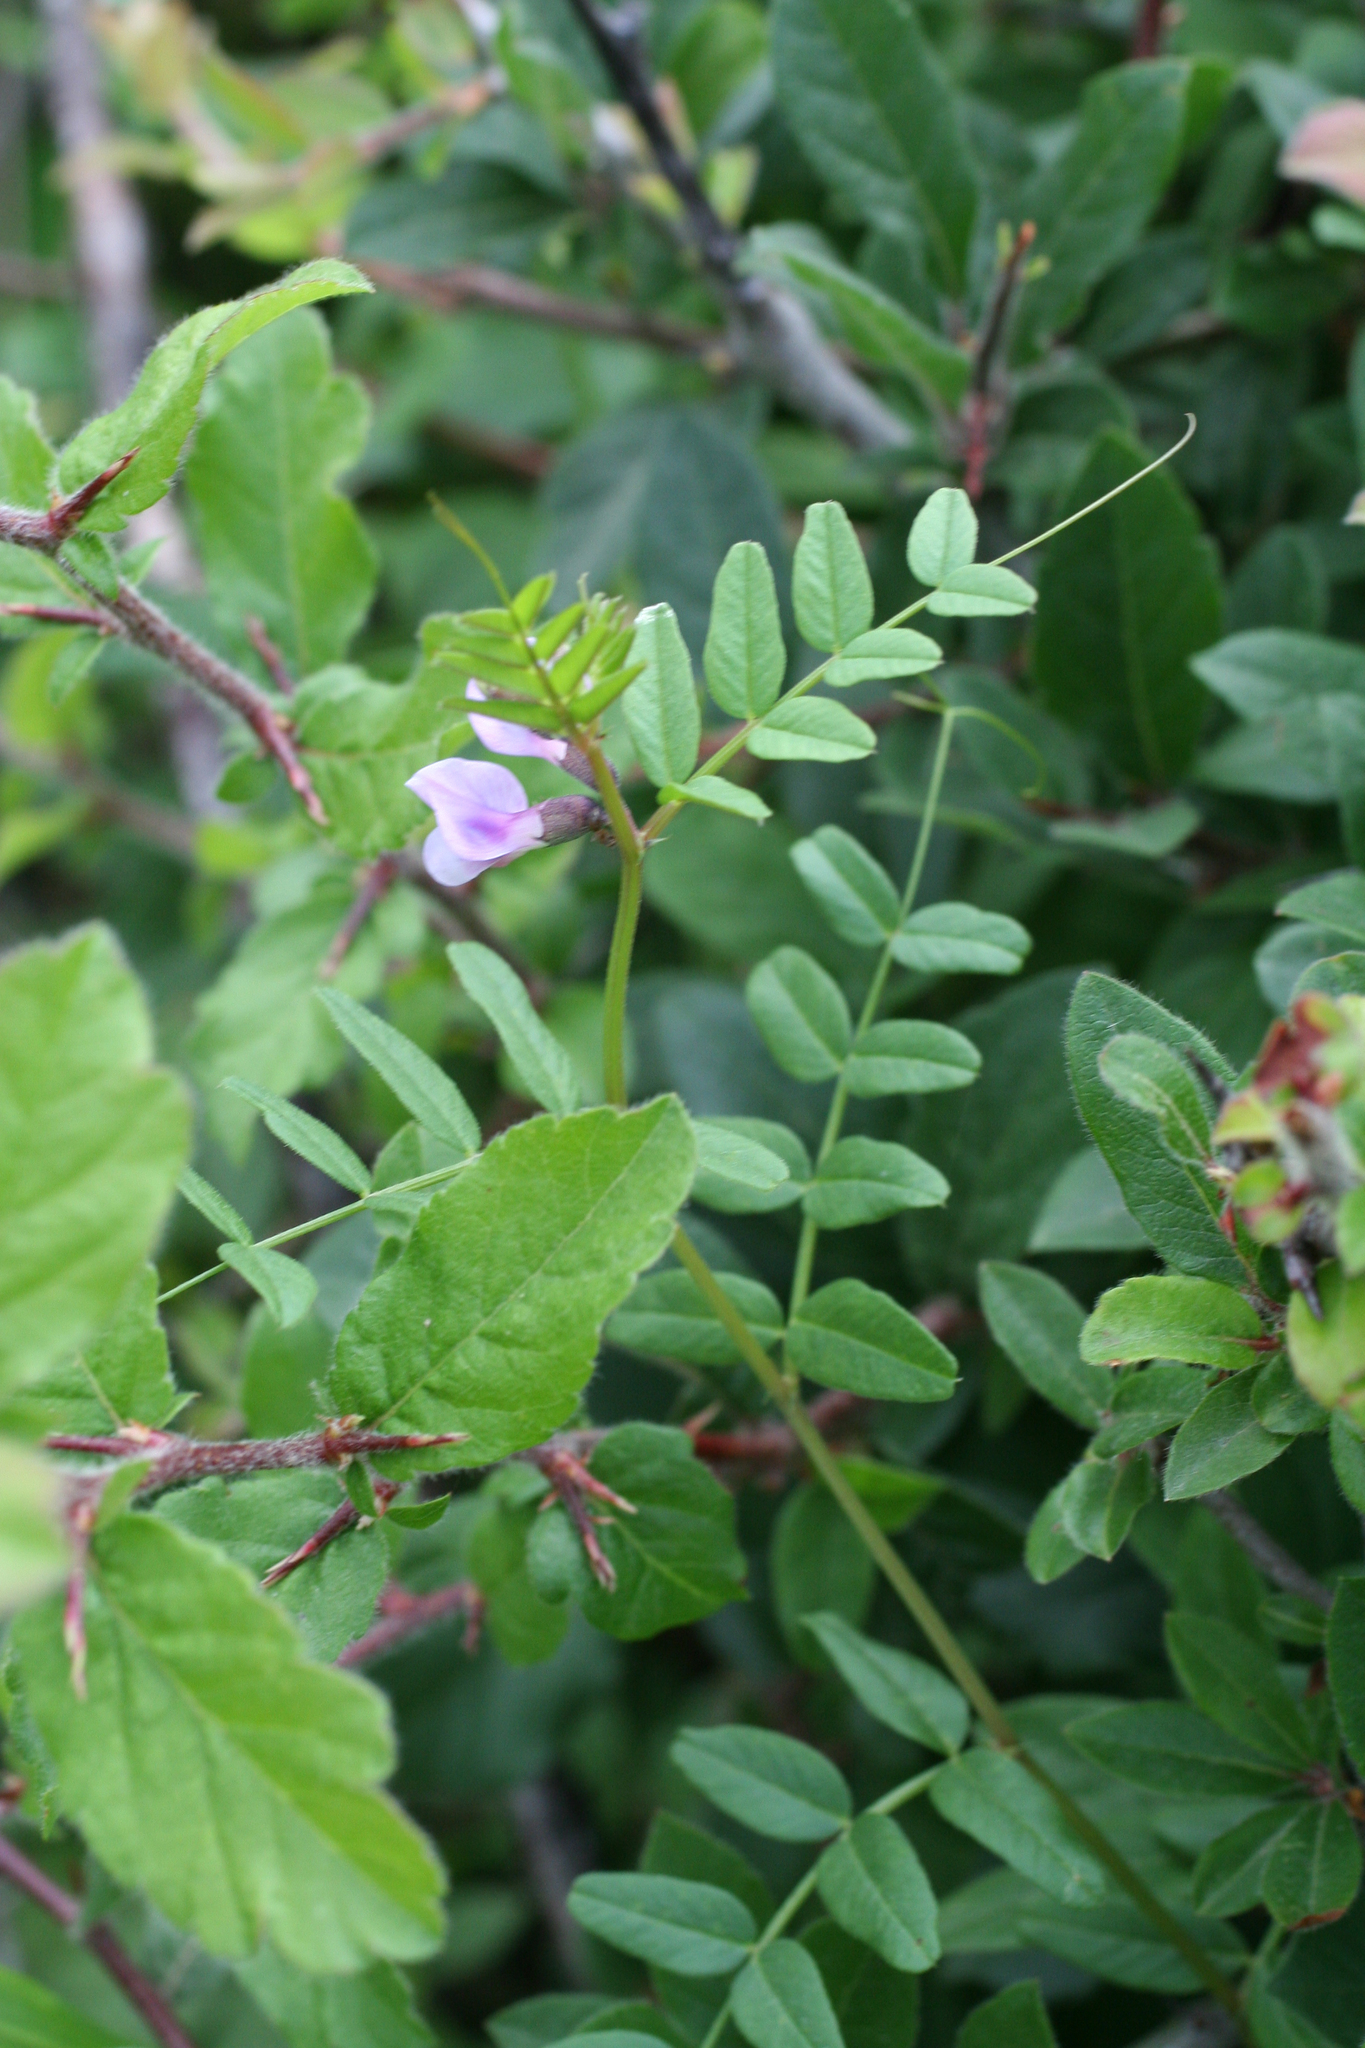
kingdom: Plantae
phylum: Tracheophyta
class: Magnoliopsida
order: Fabales
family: Fabaceae
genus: Vicia
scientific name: Vicia sepium
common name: Bush vetch
